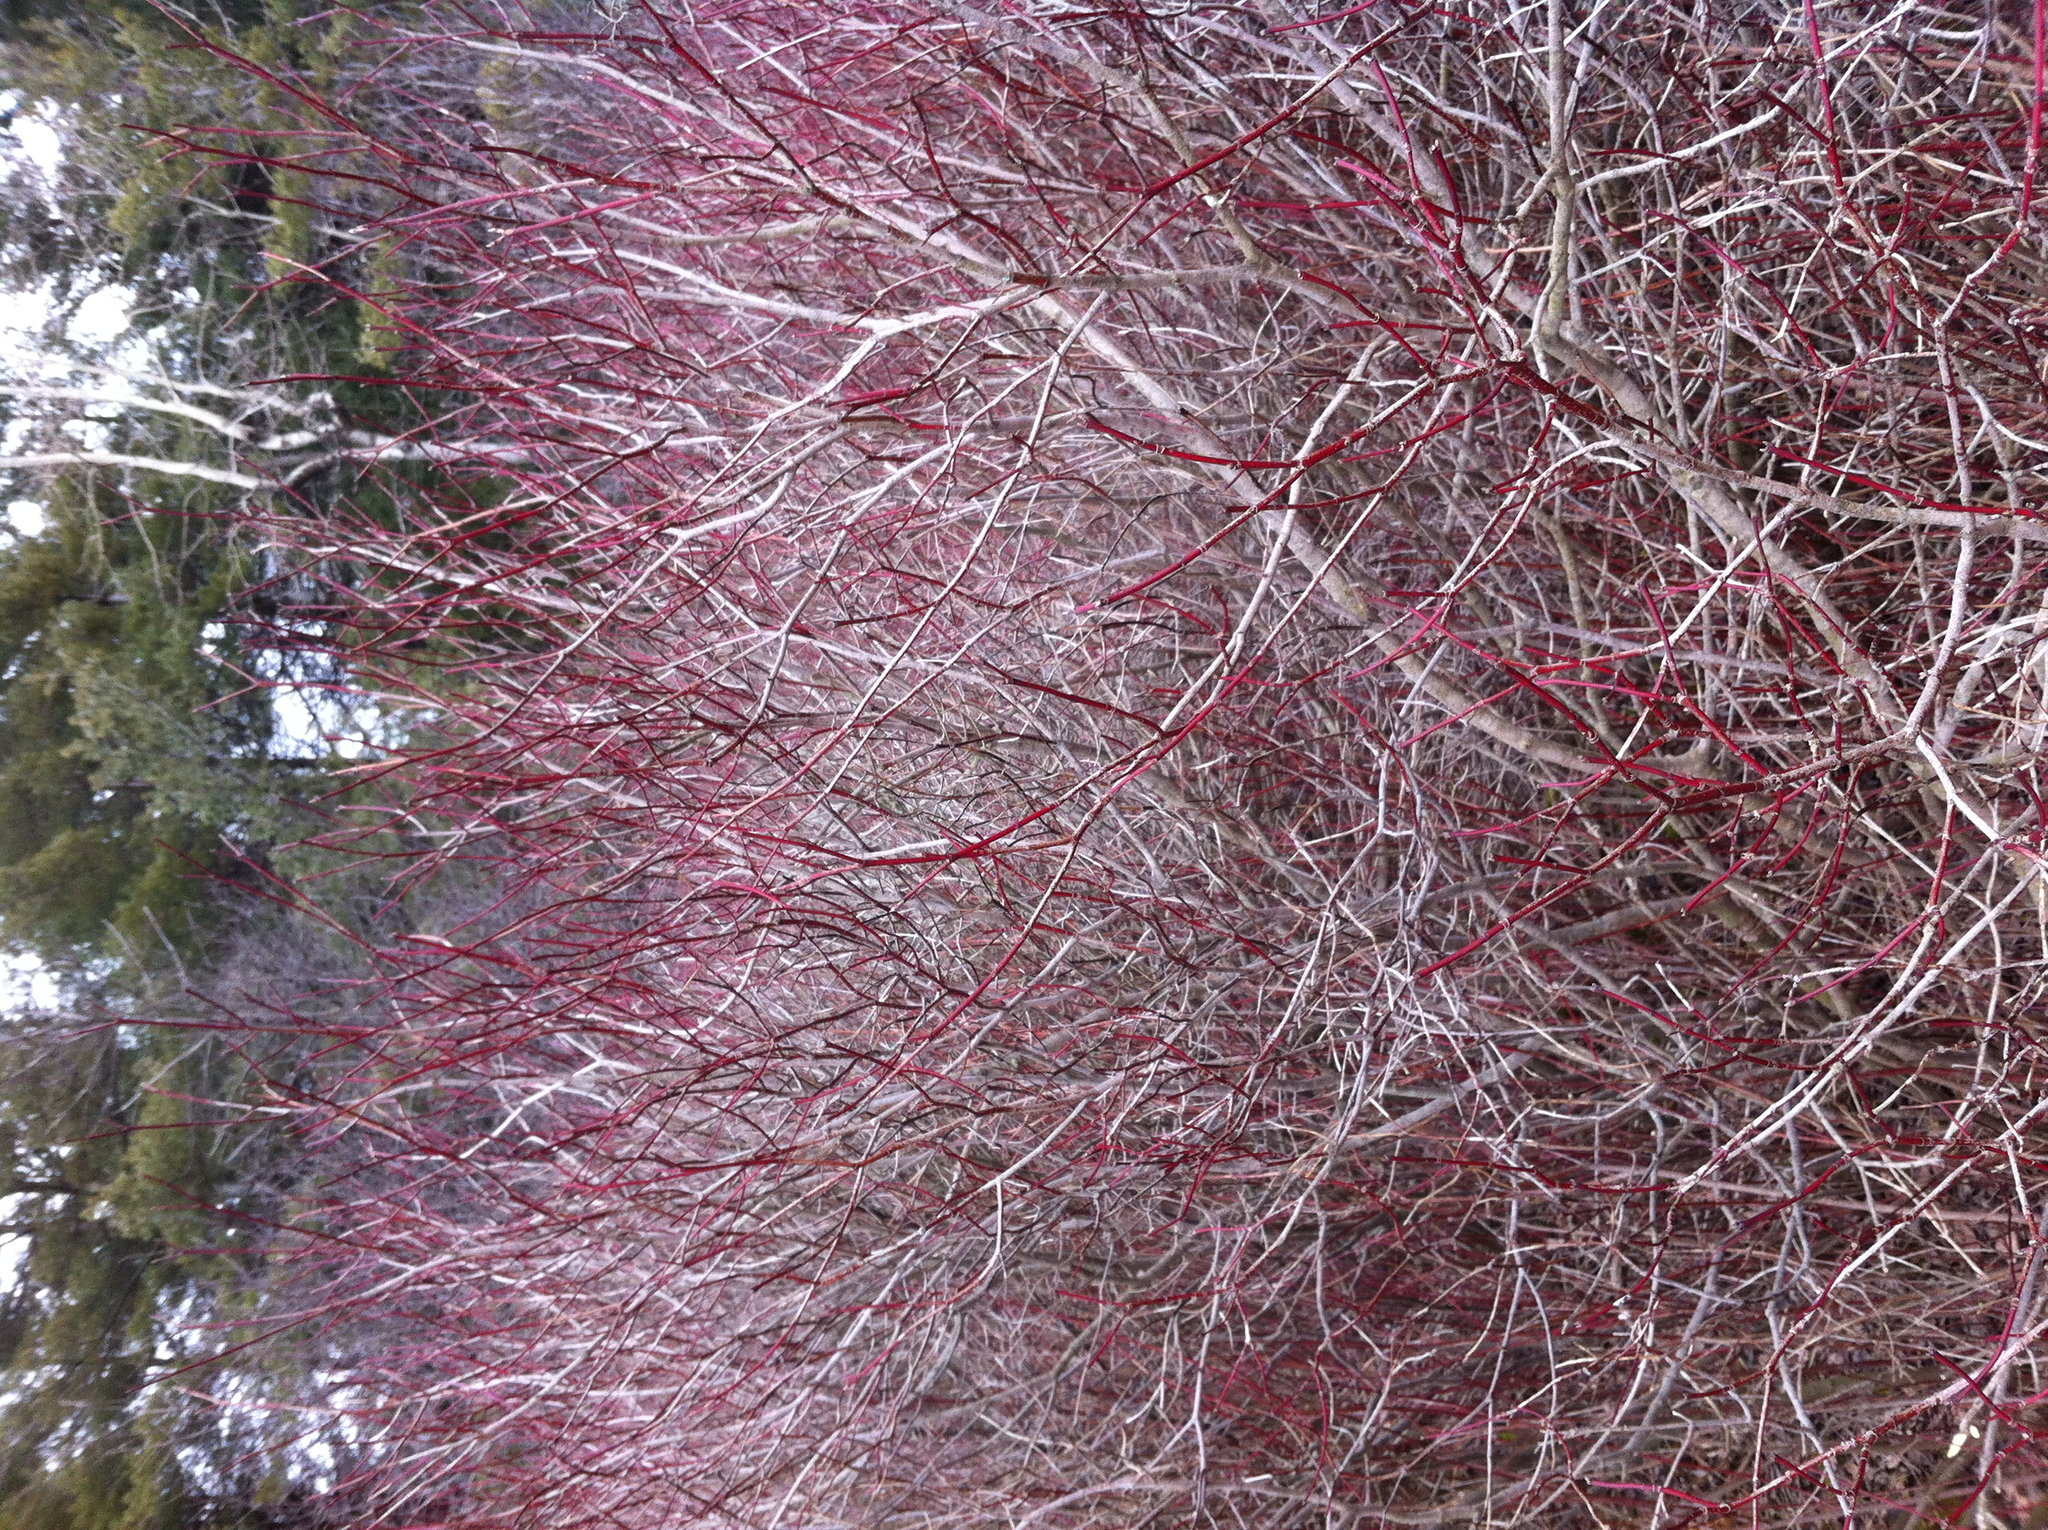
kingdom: Plantae
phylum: Tracheophyta
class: Magnoliopsida
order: Cornales
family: Cornaceae
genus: Cornus
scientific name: Cornus sericea
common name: Red-osier dogwood
